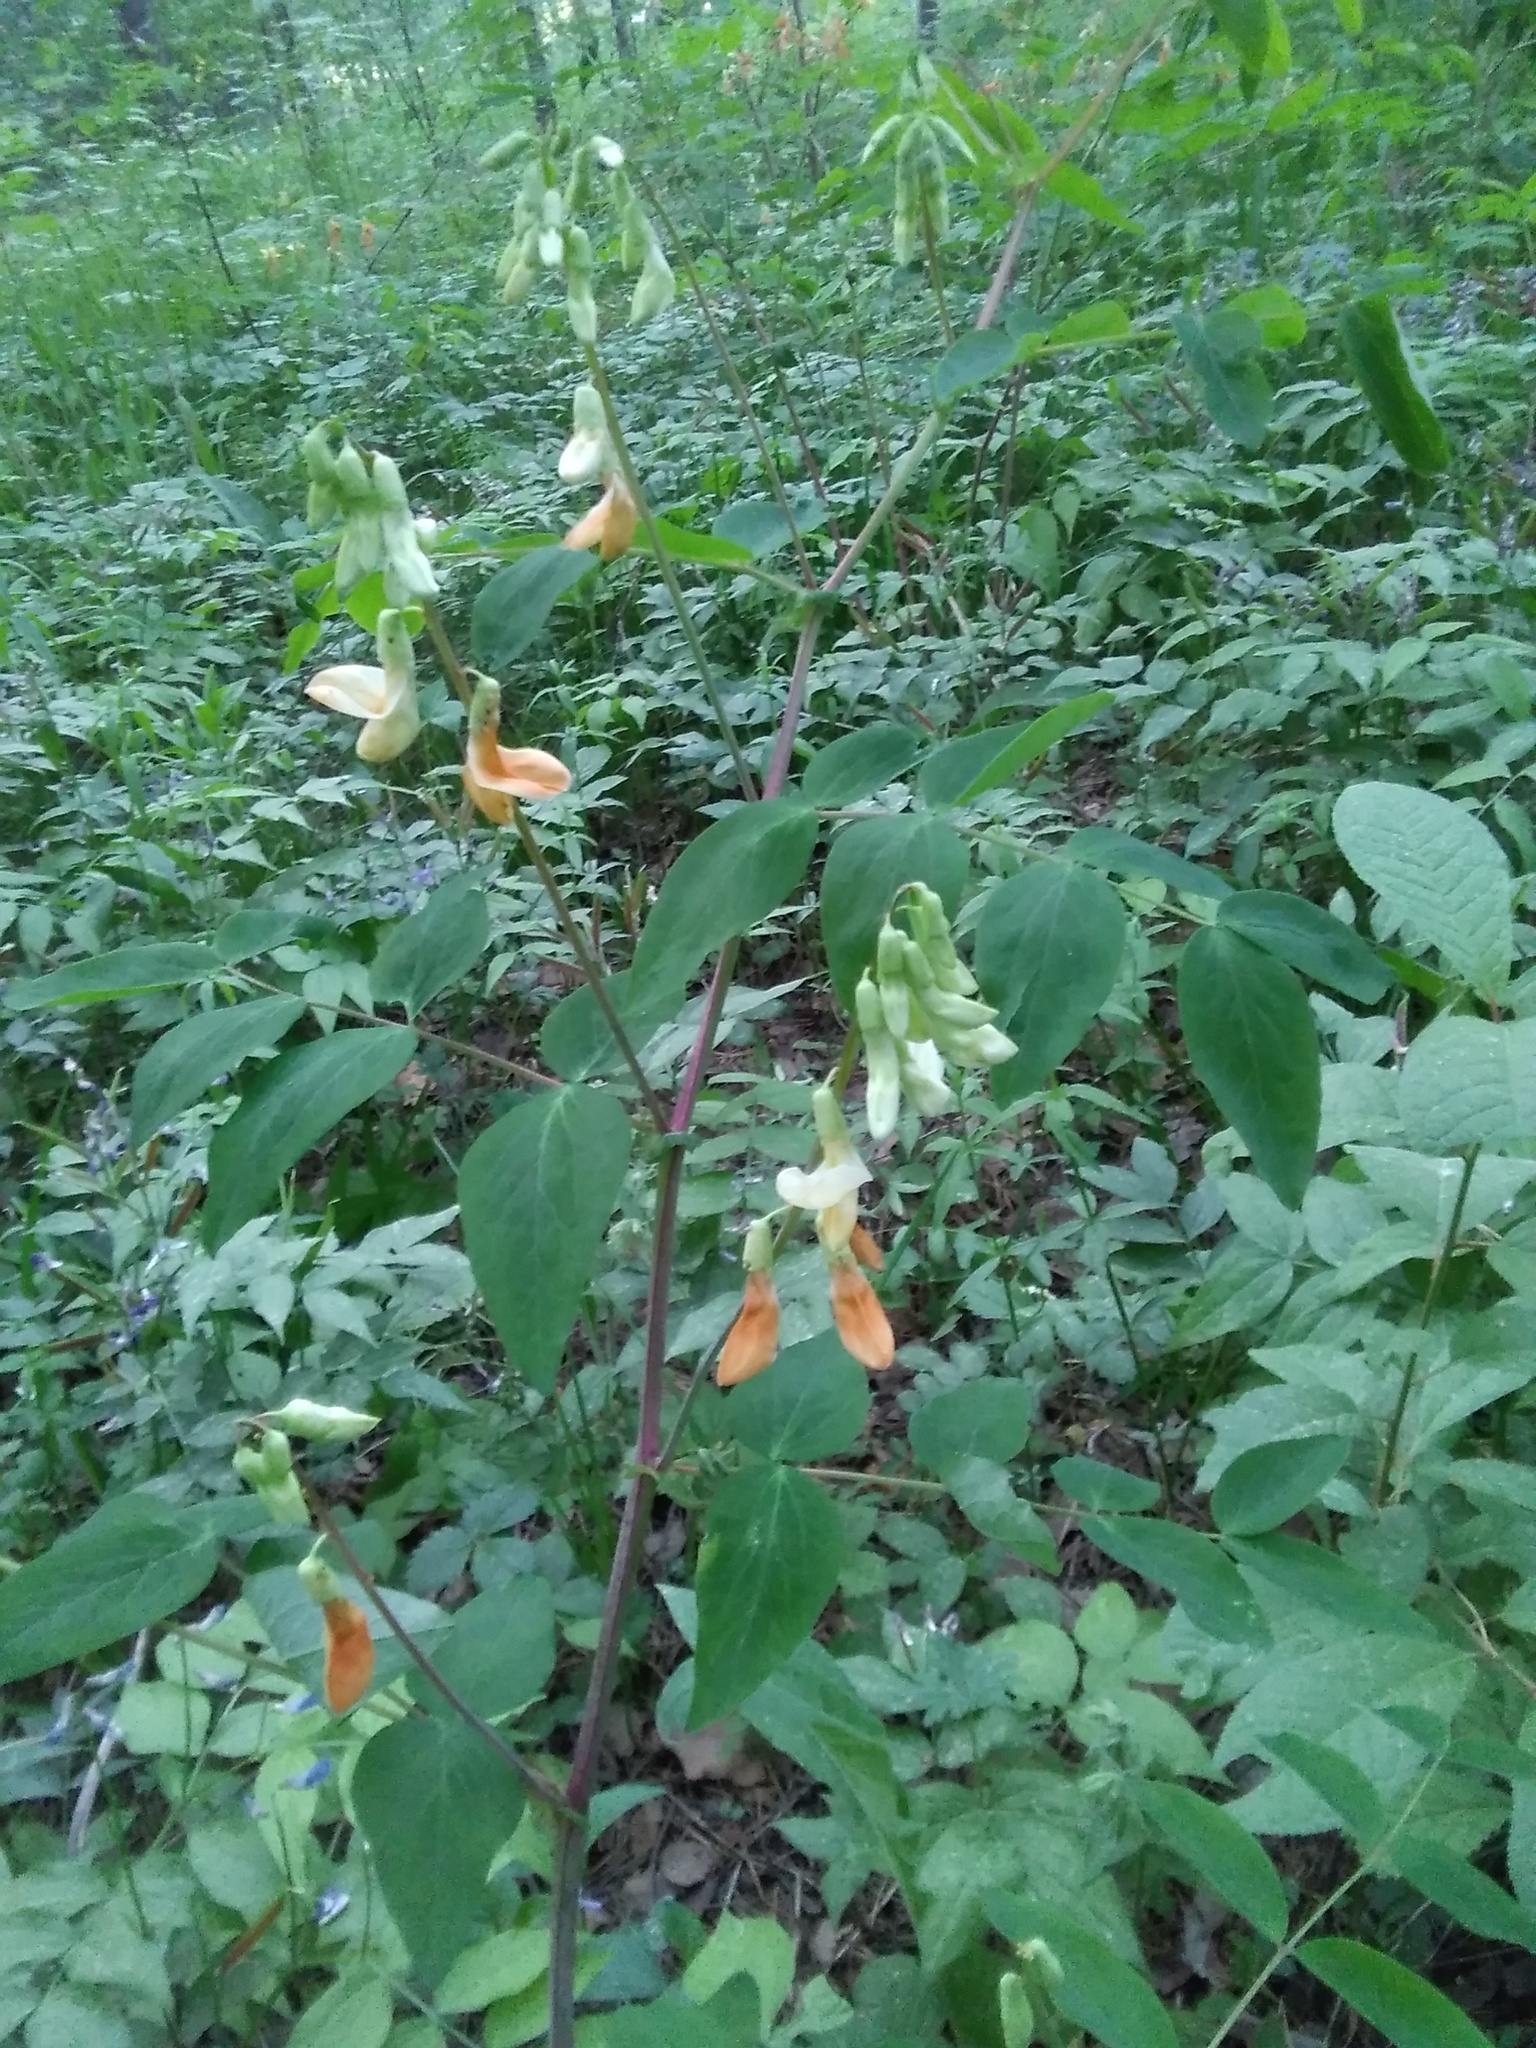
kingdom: Plantae
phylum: Tracheophyta
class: Magnoliopsida
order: Fabales
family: Fabaceae
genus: Lathyrus
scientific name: Lathyrus gmelinii
